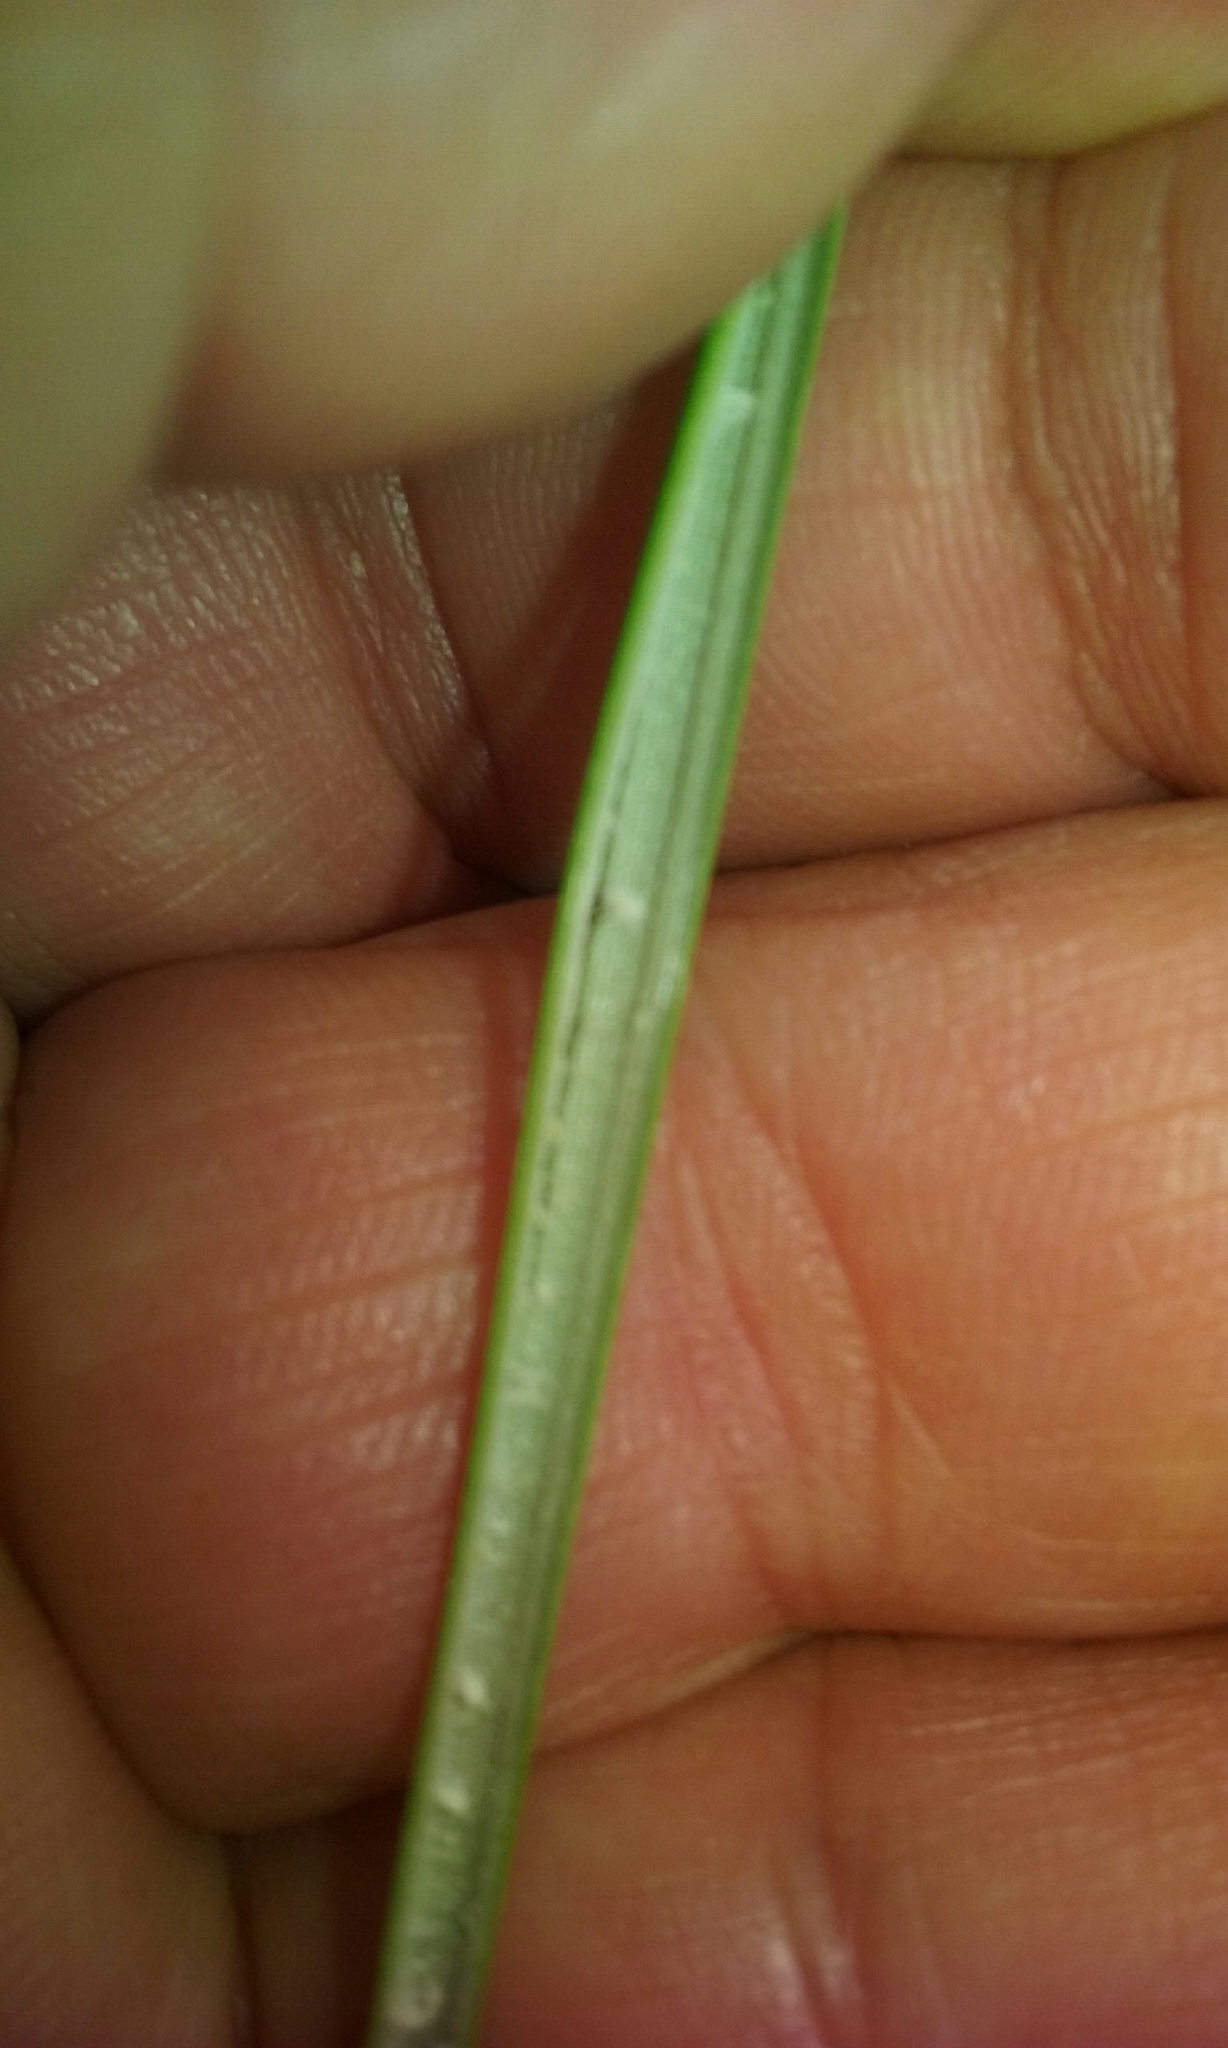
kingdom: Plantae
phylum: Tracheophyta
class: Liliopsida
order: Poales
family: Juncaceae
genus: Juncus
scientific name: Juncus australis
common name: Austral rush
